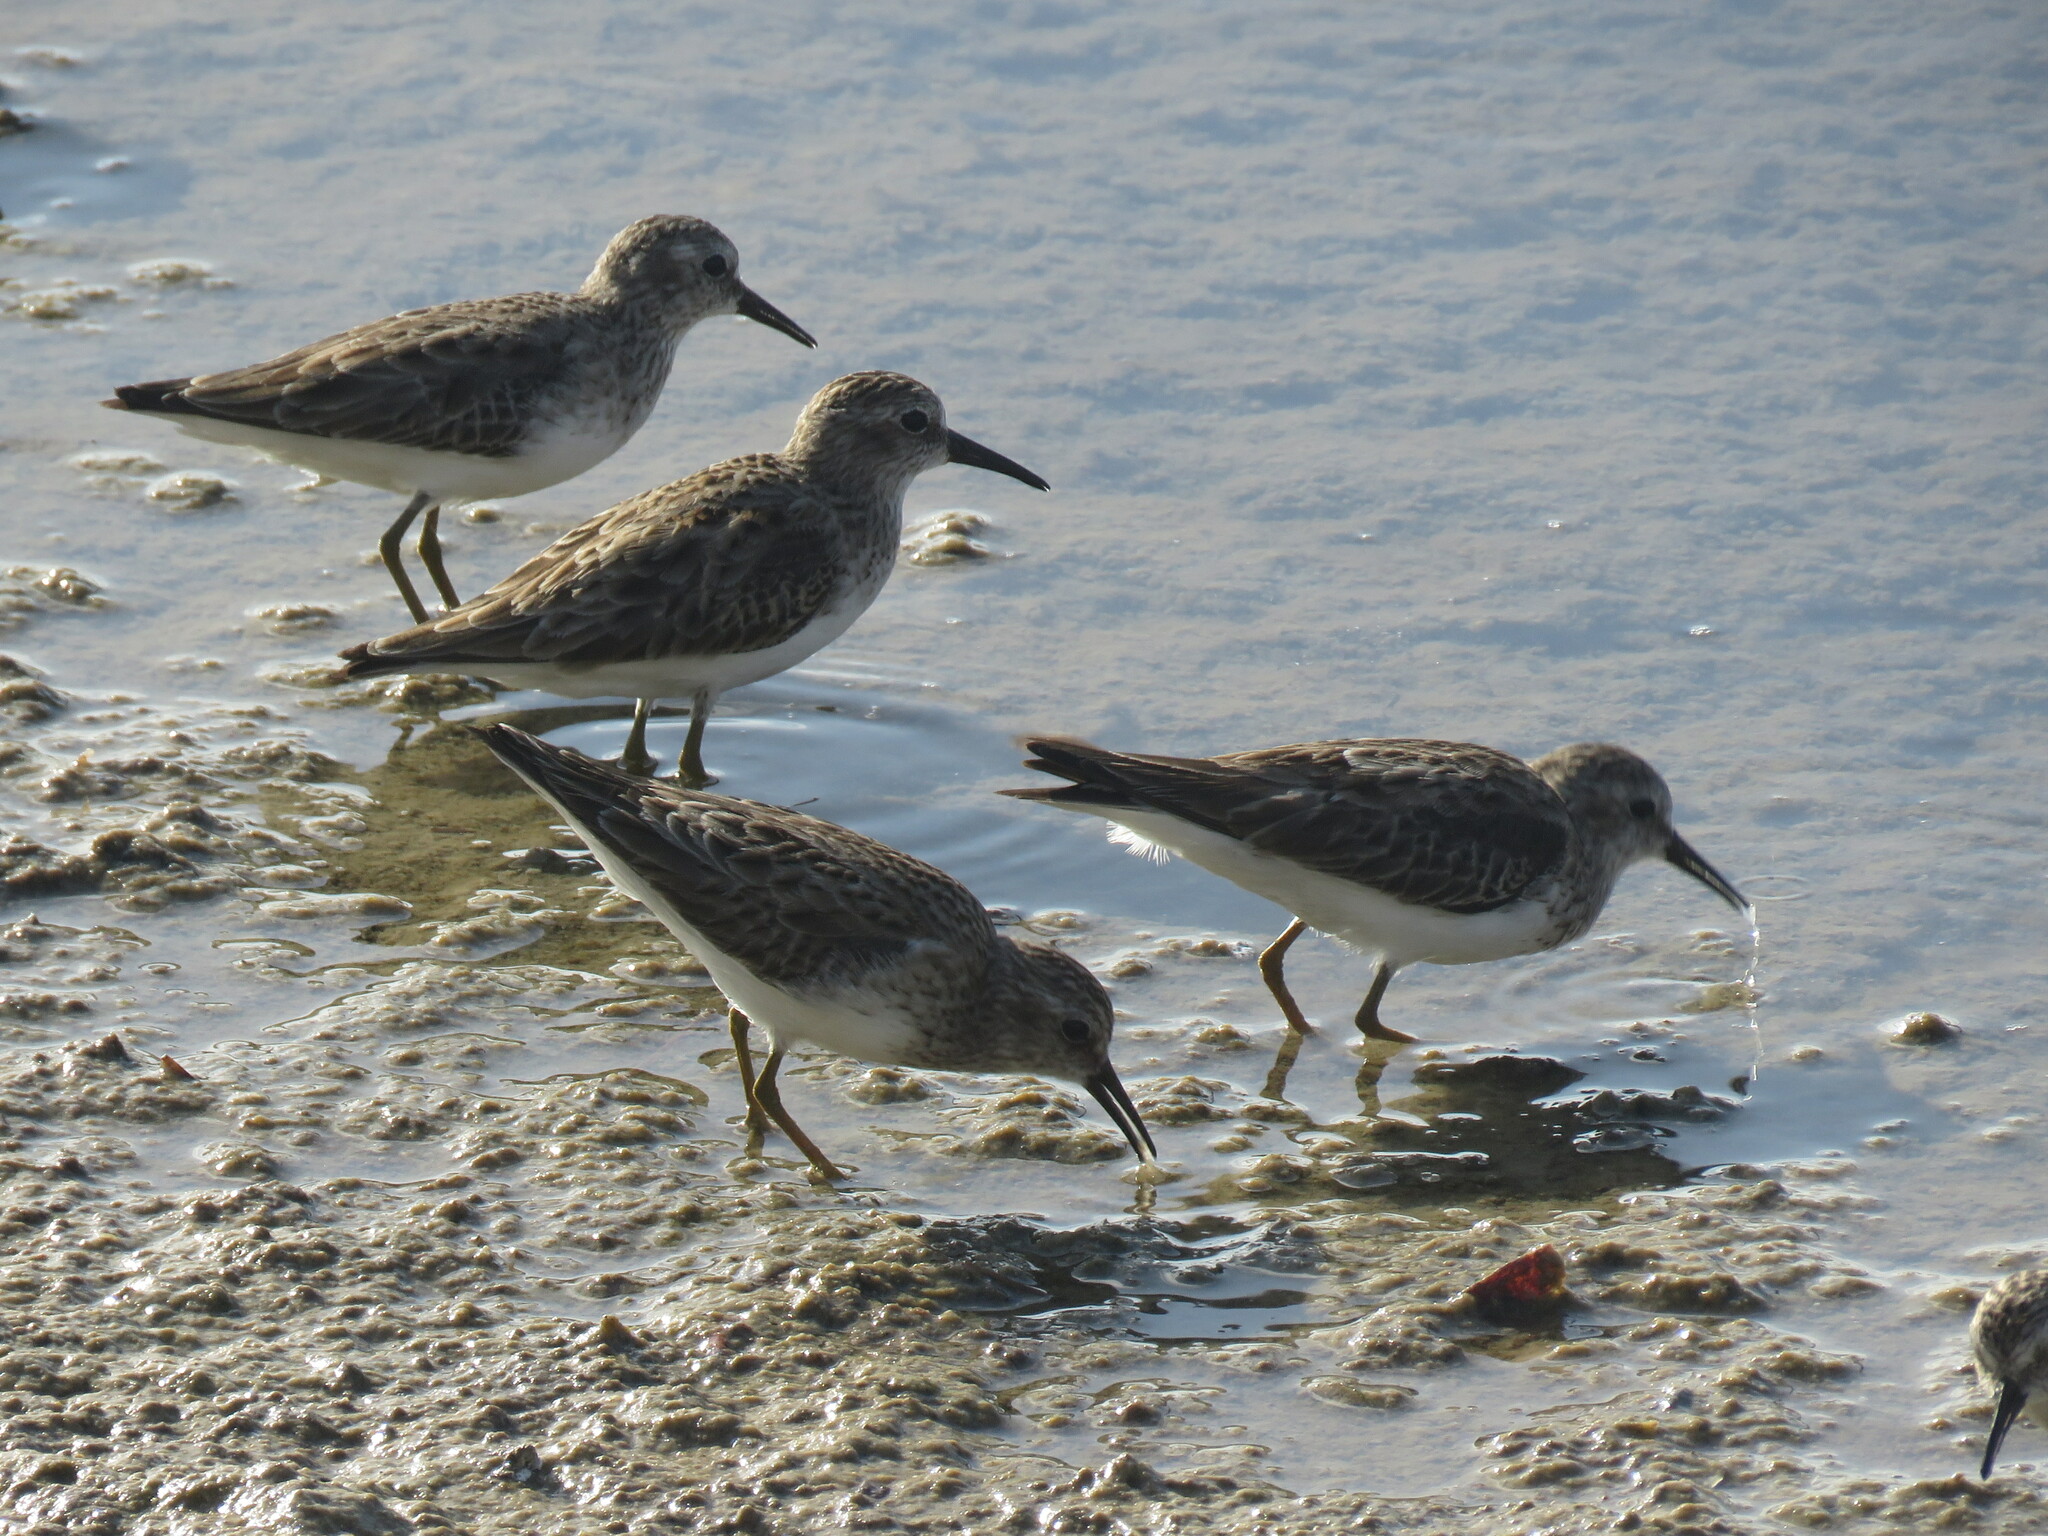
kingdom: Animalia
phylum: Chordata
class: Aves
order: Charadriiformes
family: Scolopacidae
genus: Calidris
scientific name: Calidris minutilla
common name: Least sandpiper
